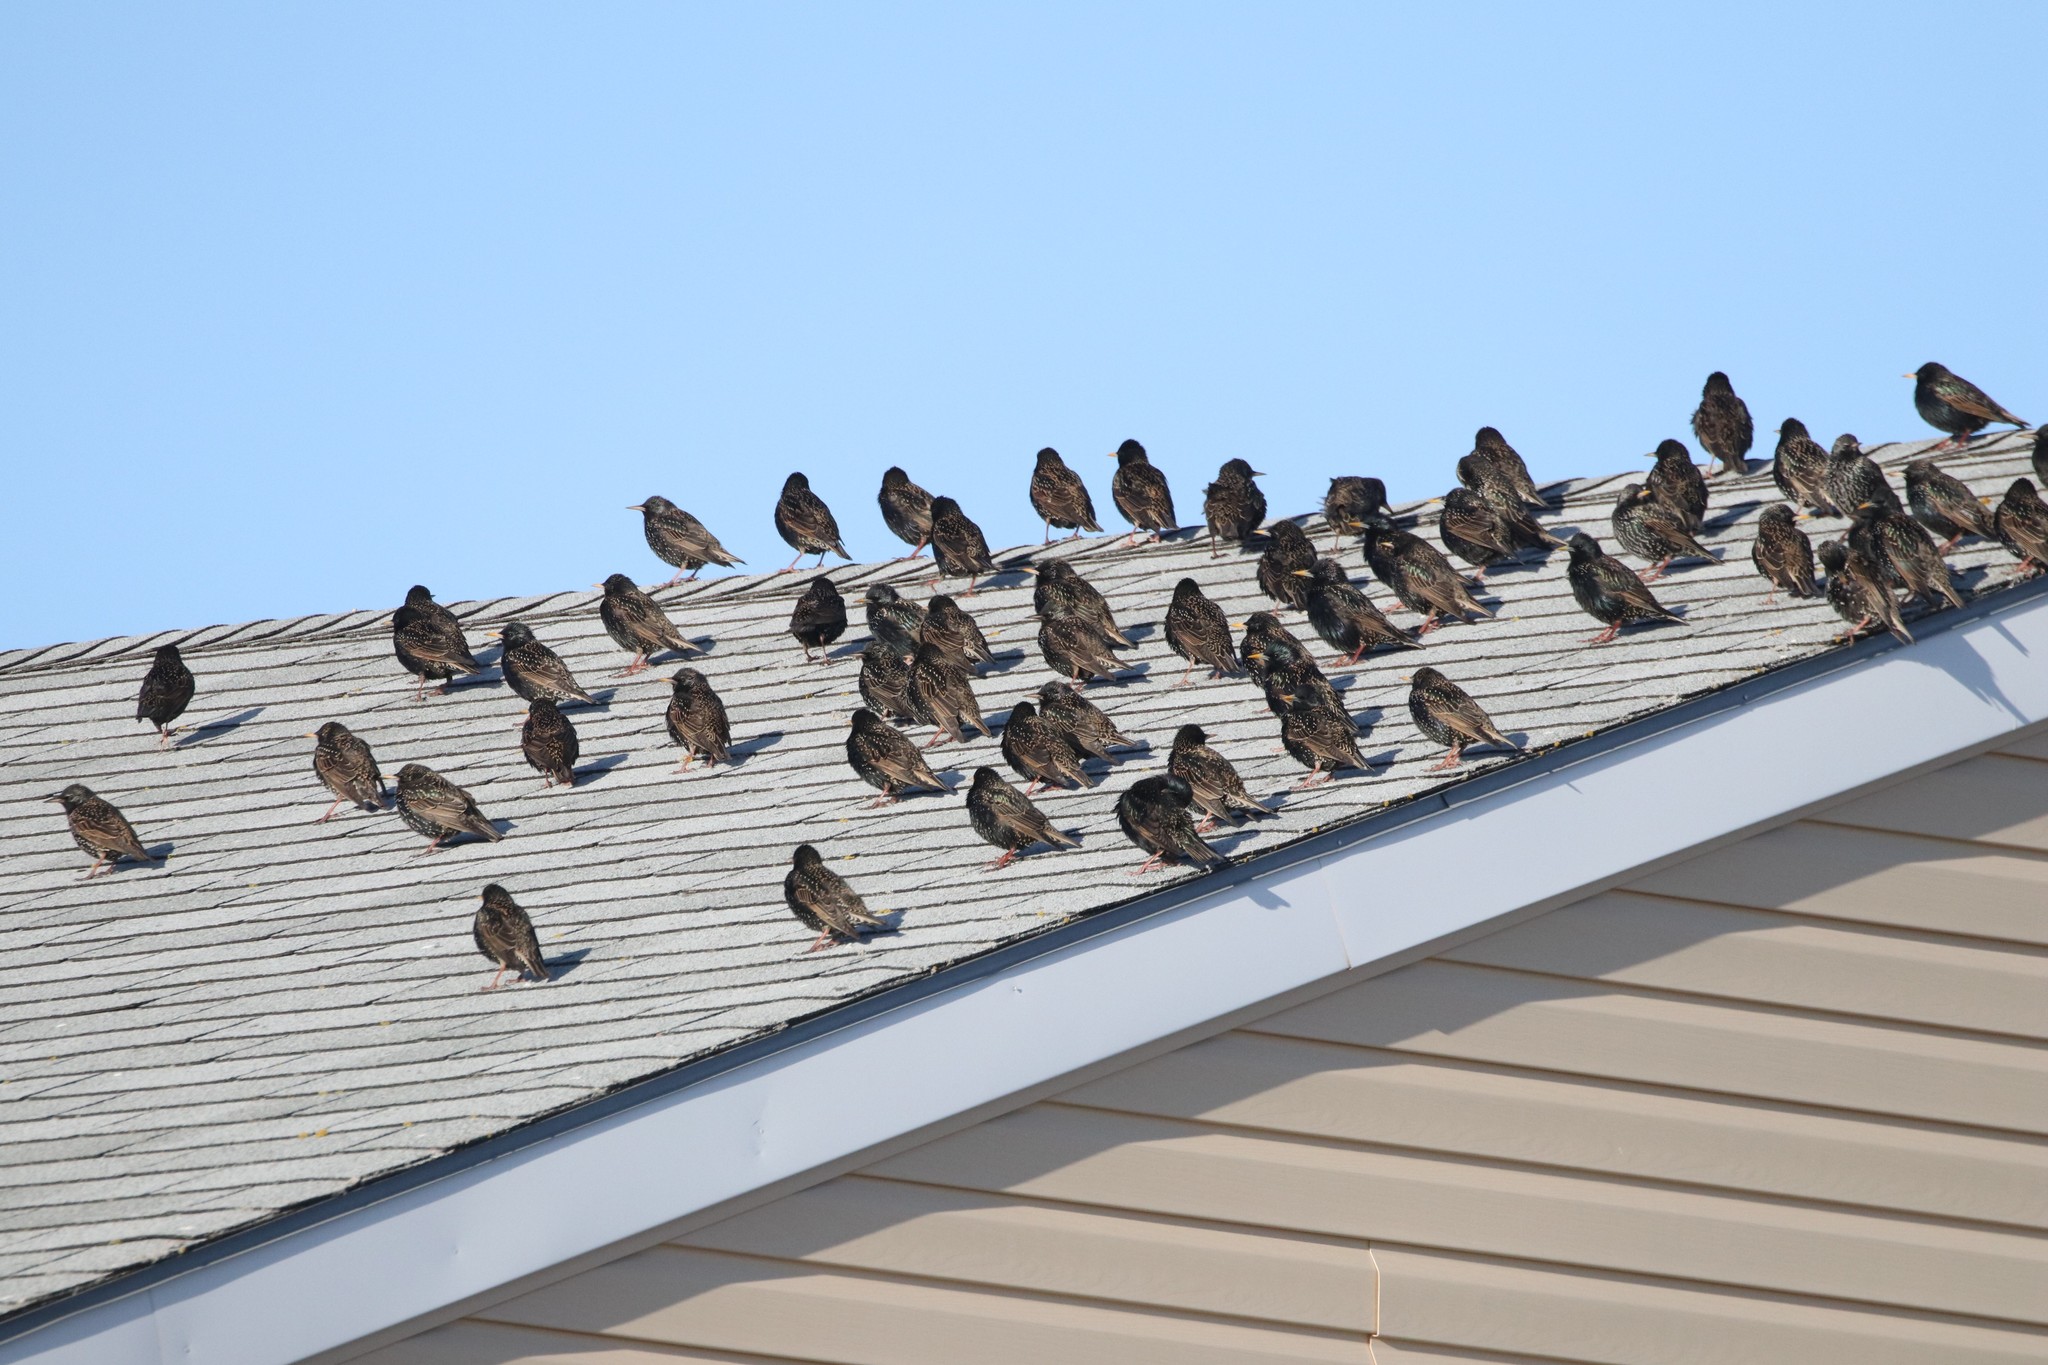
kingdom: Animalia
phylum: Chordata
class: Aves
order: Passeriformes
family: Sturnidae
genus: Sturnus
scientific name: Sturnus vulgaris
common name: Common starling
